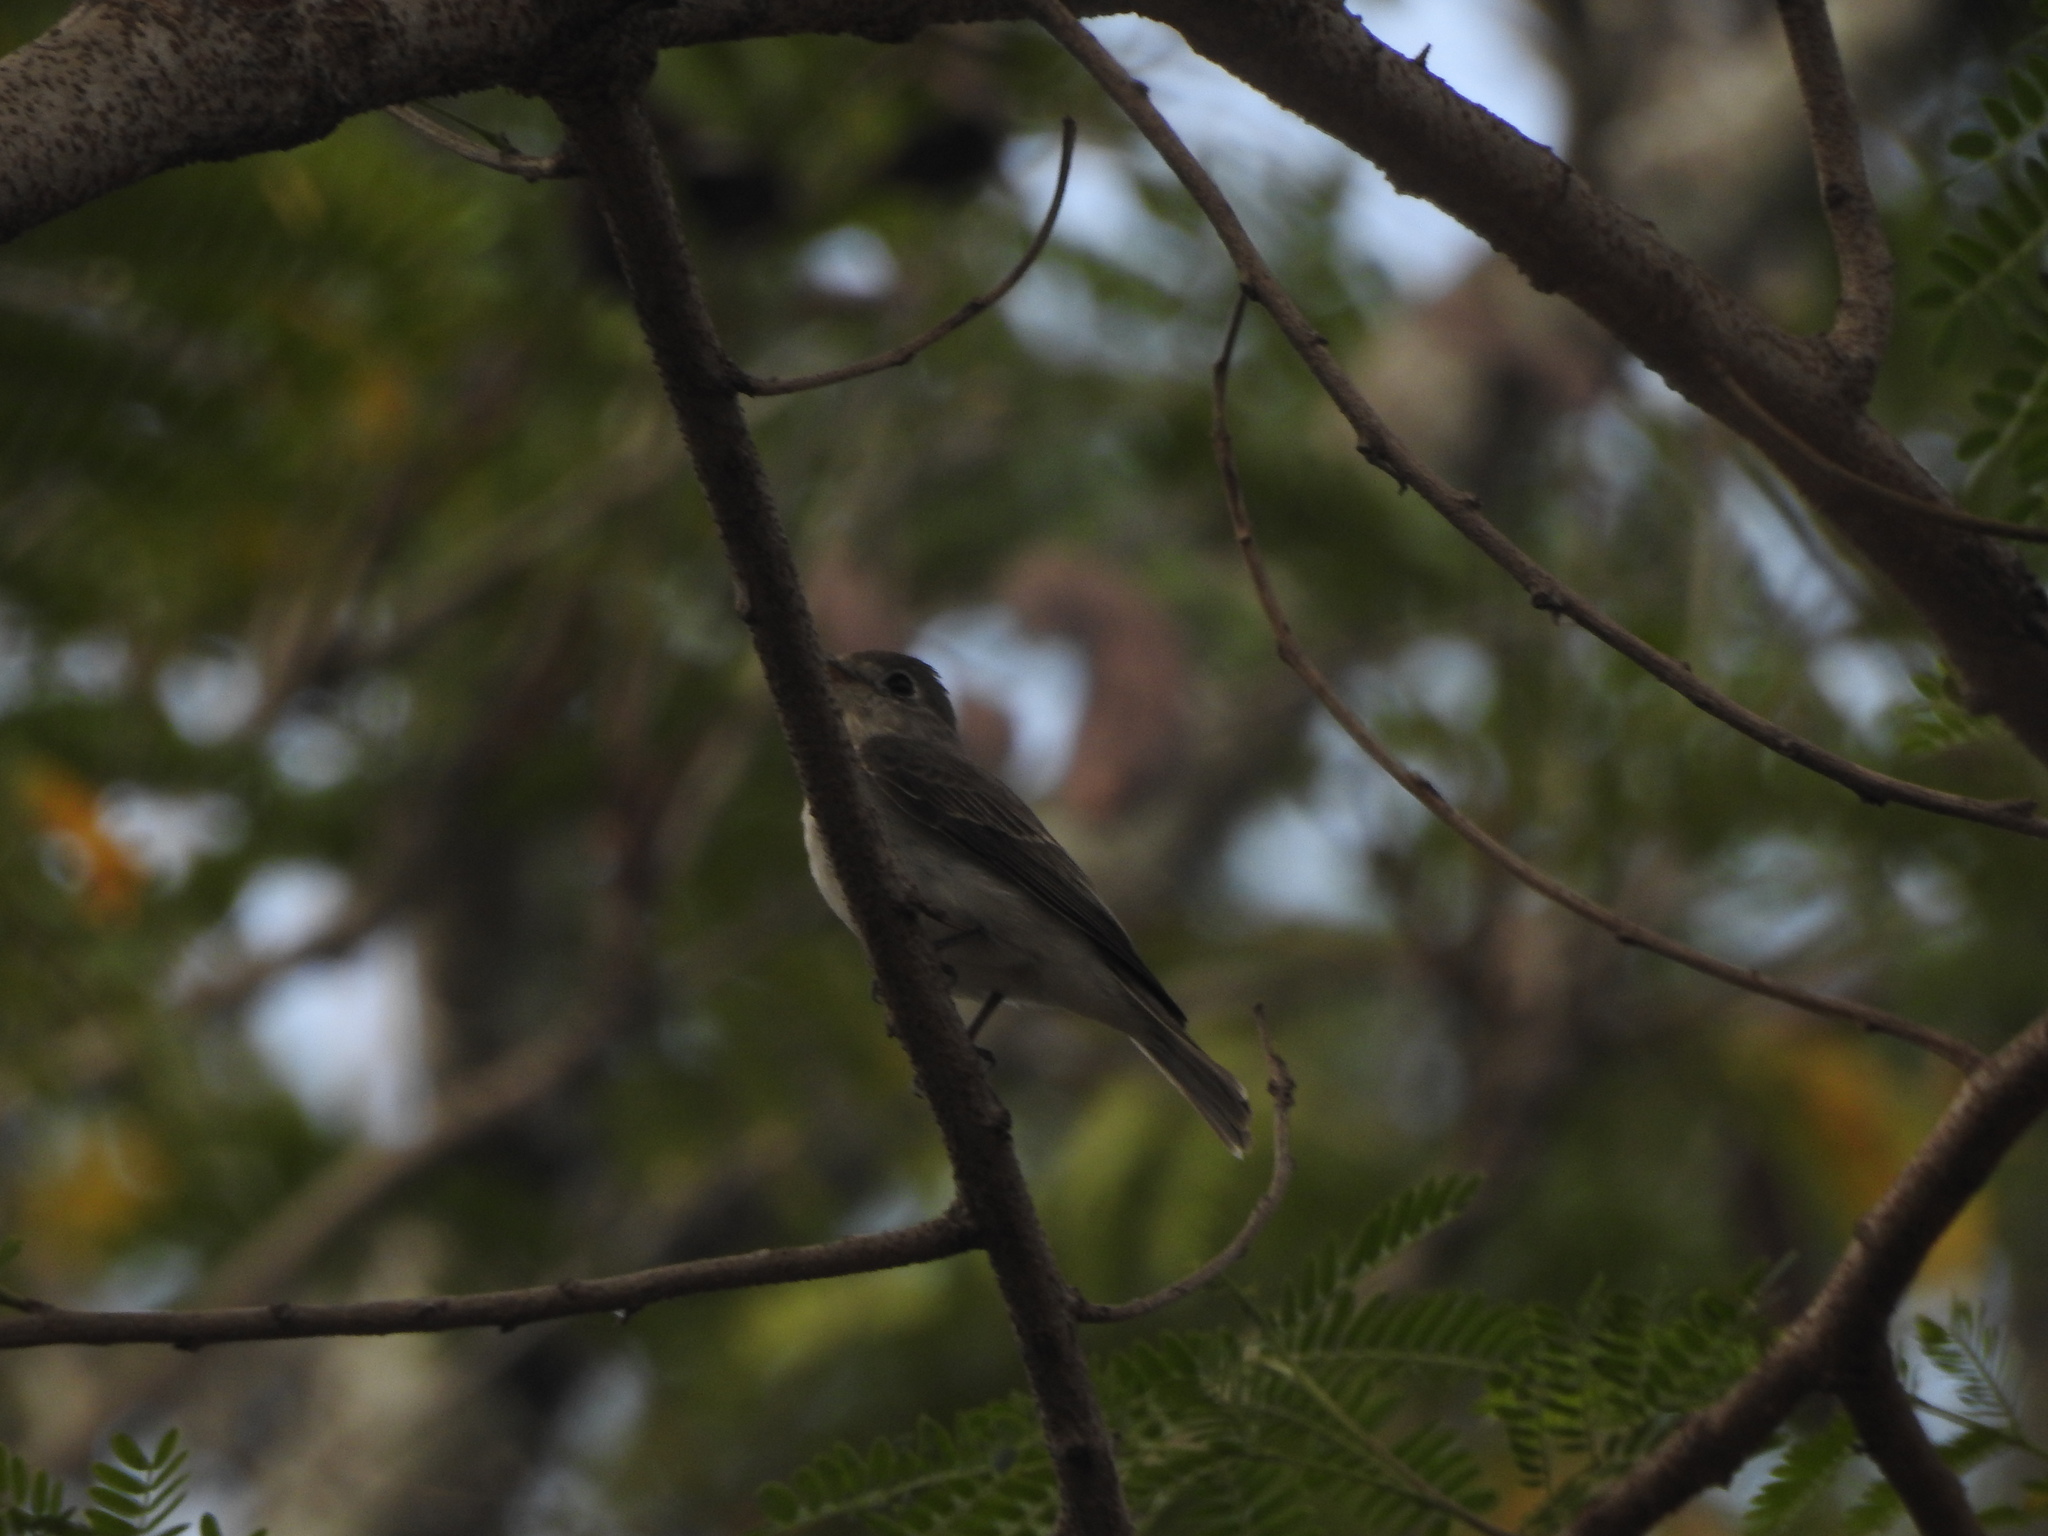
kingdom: Animalia
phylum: Chordata
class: Aves
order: Passeriformes
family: Muscicapidae
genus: Muscicapa
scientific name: Muscicapa latirostris
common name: Asian brown flycatcher
